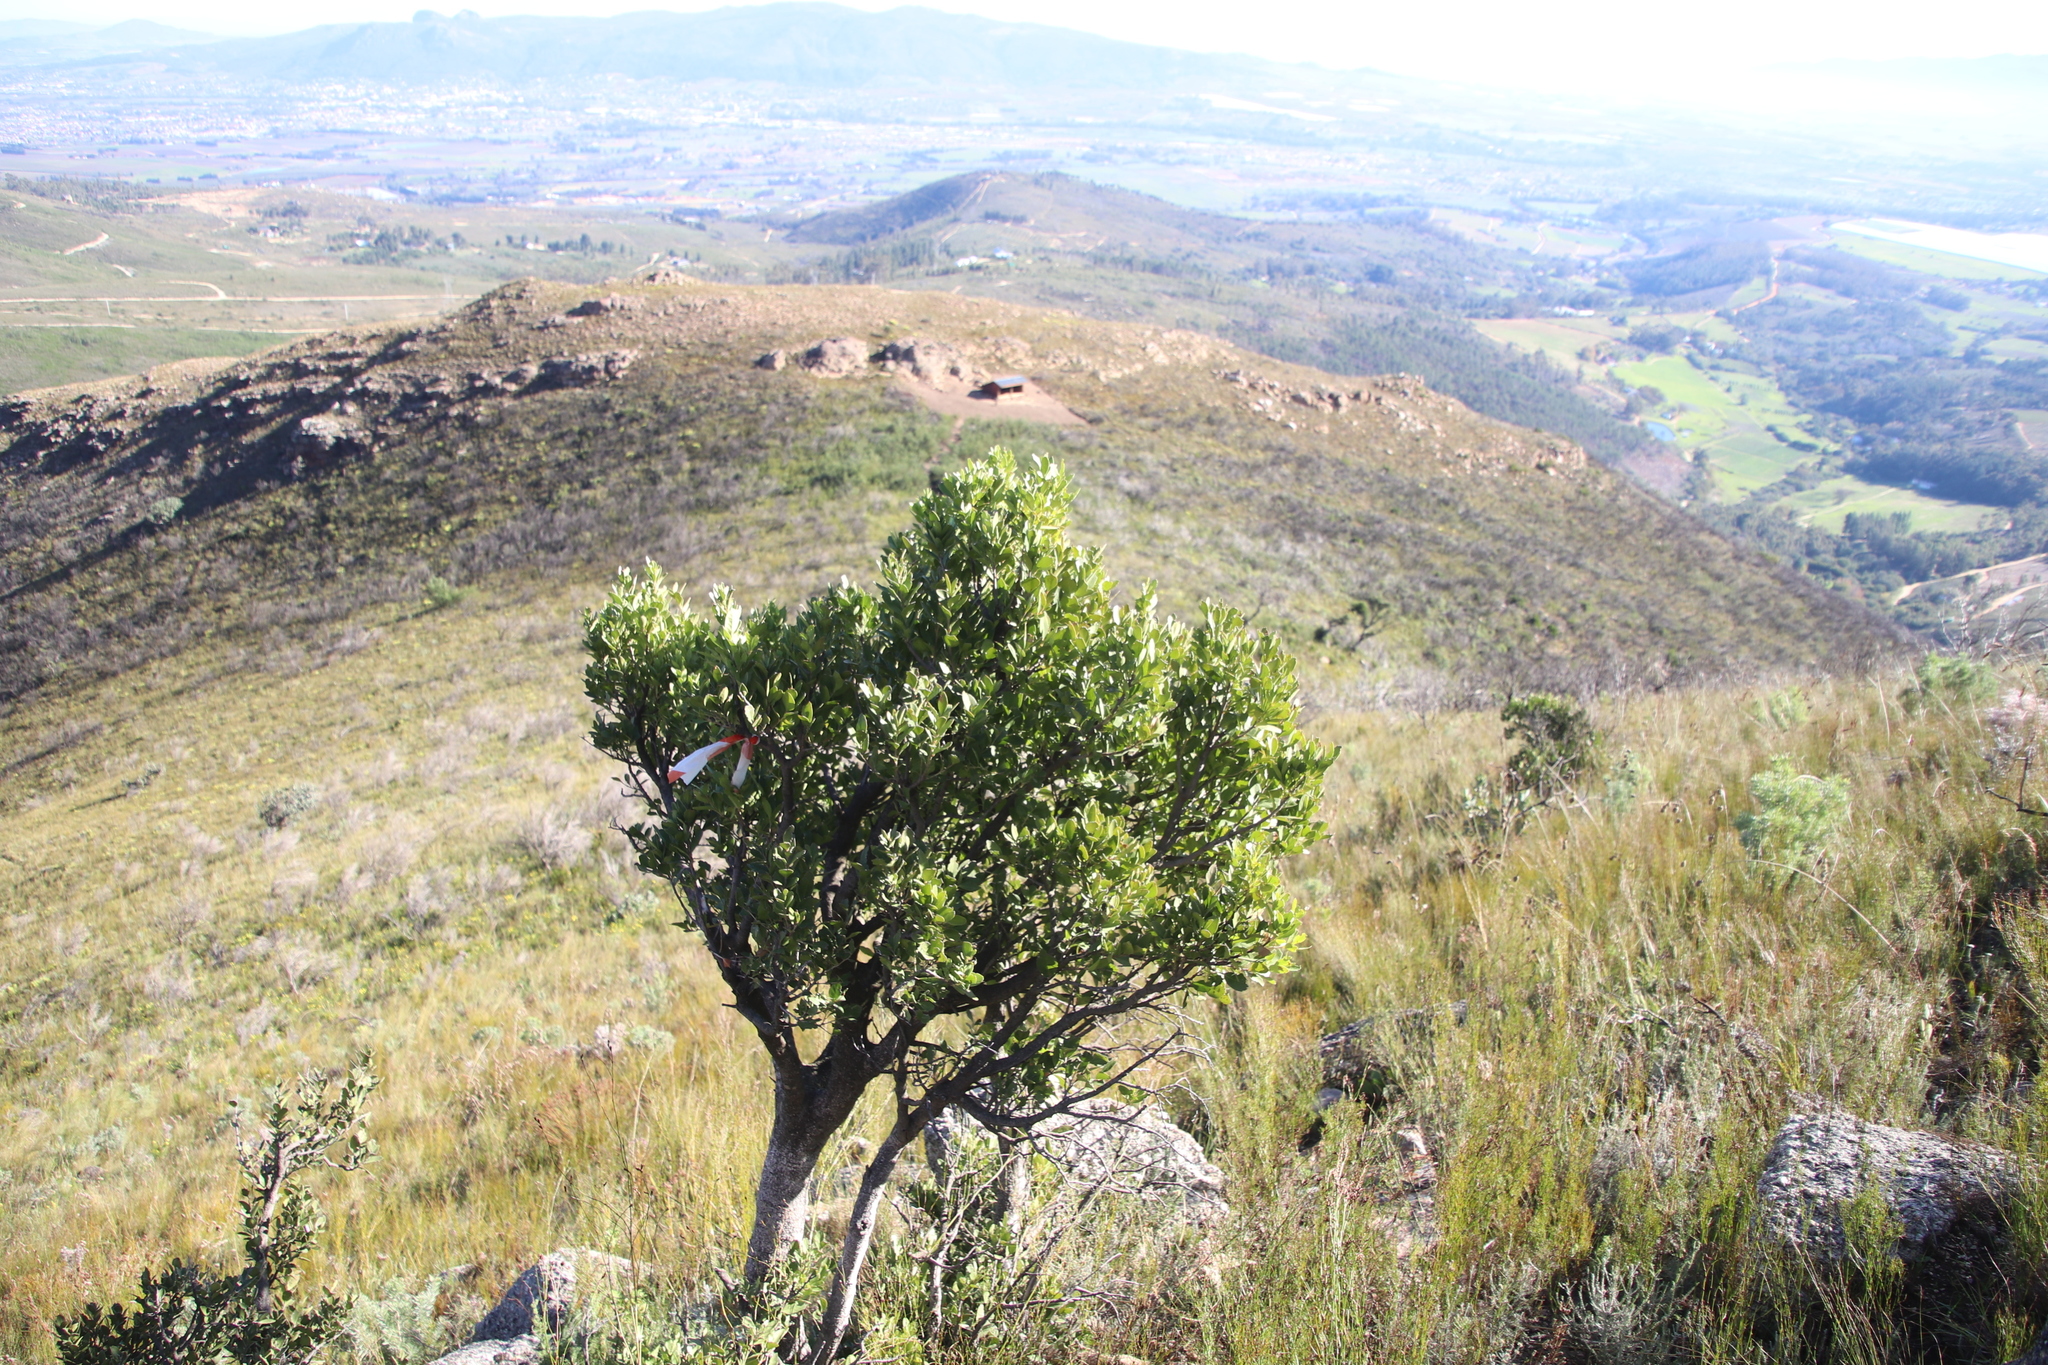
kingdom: Plantae
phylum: Tracheophyta
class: Magnoliopsida
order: Celastrales
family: Celastraceae
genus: Gymnosporia
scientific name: Gymnosporia laurina
